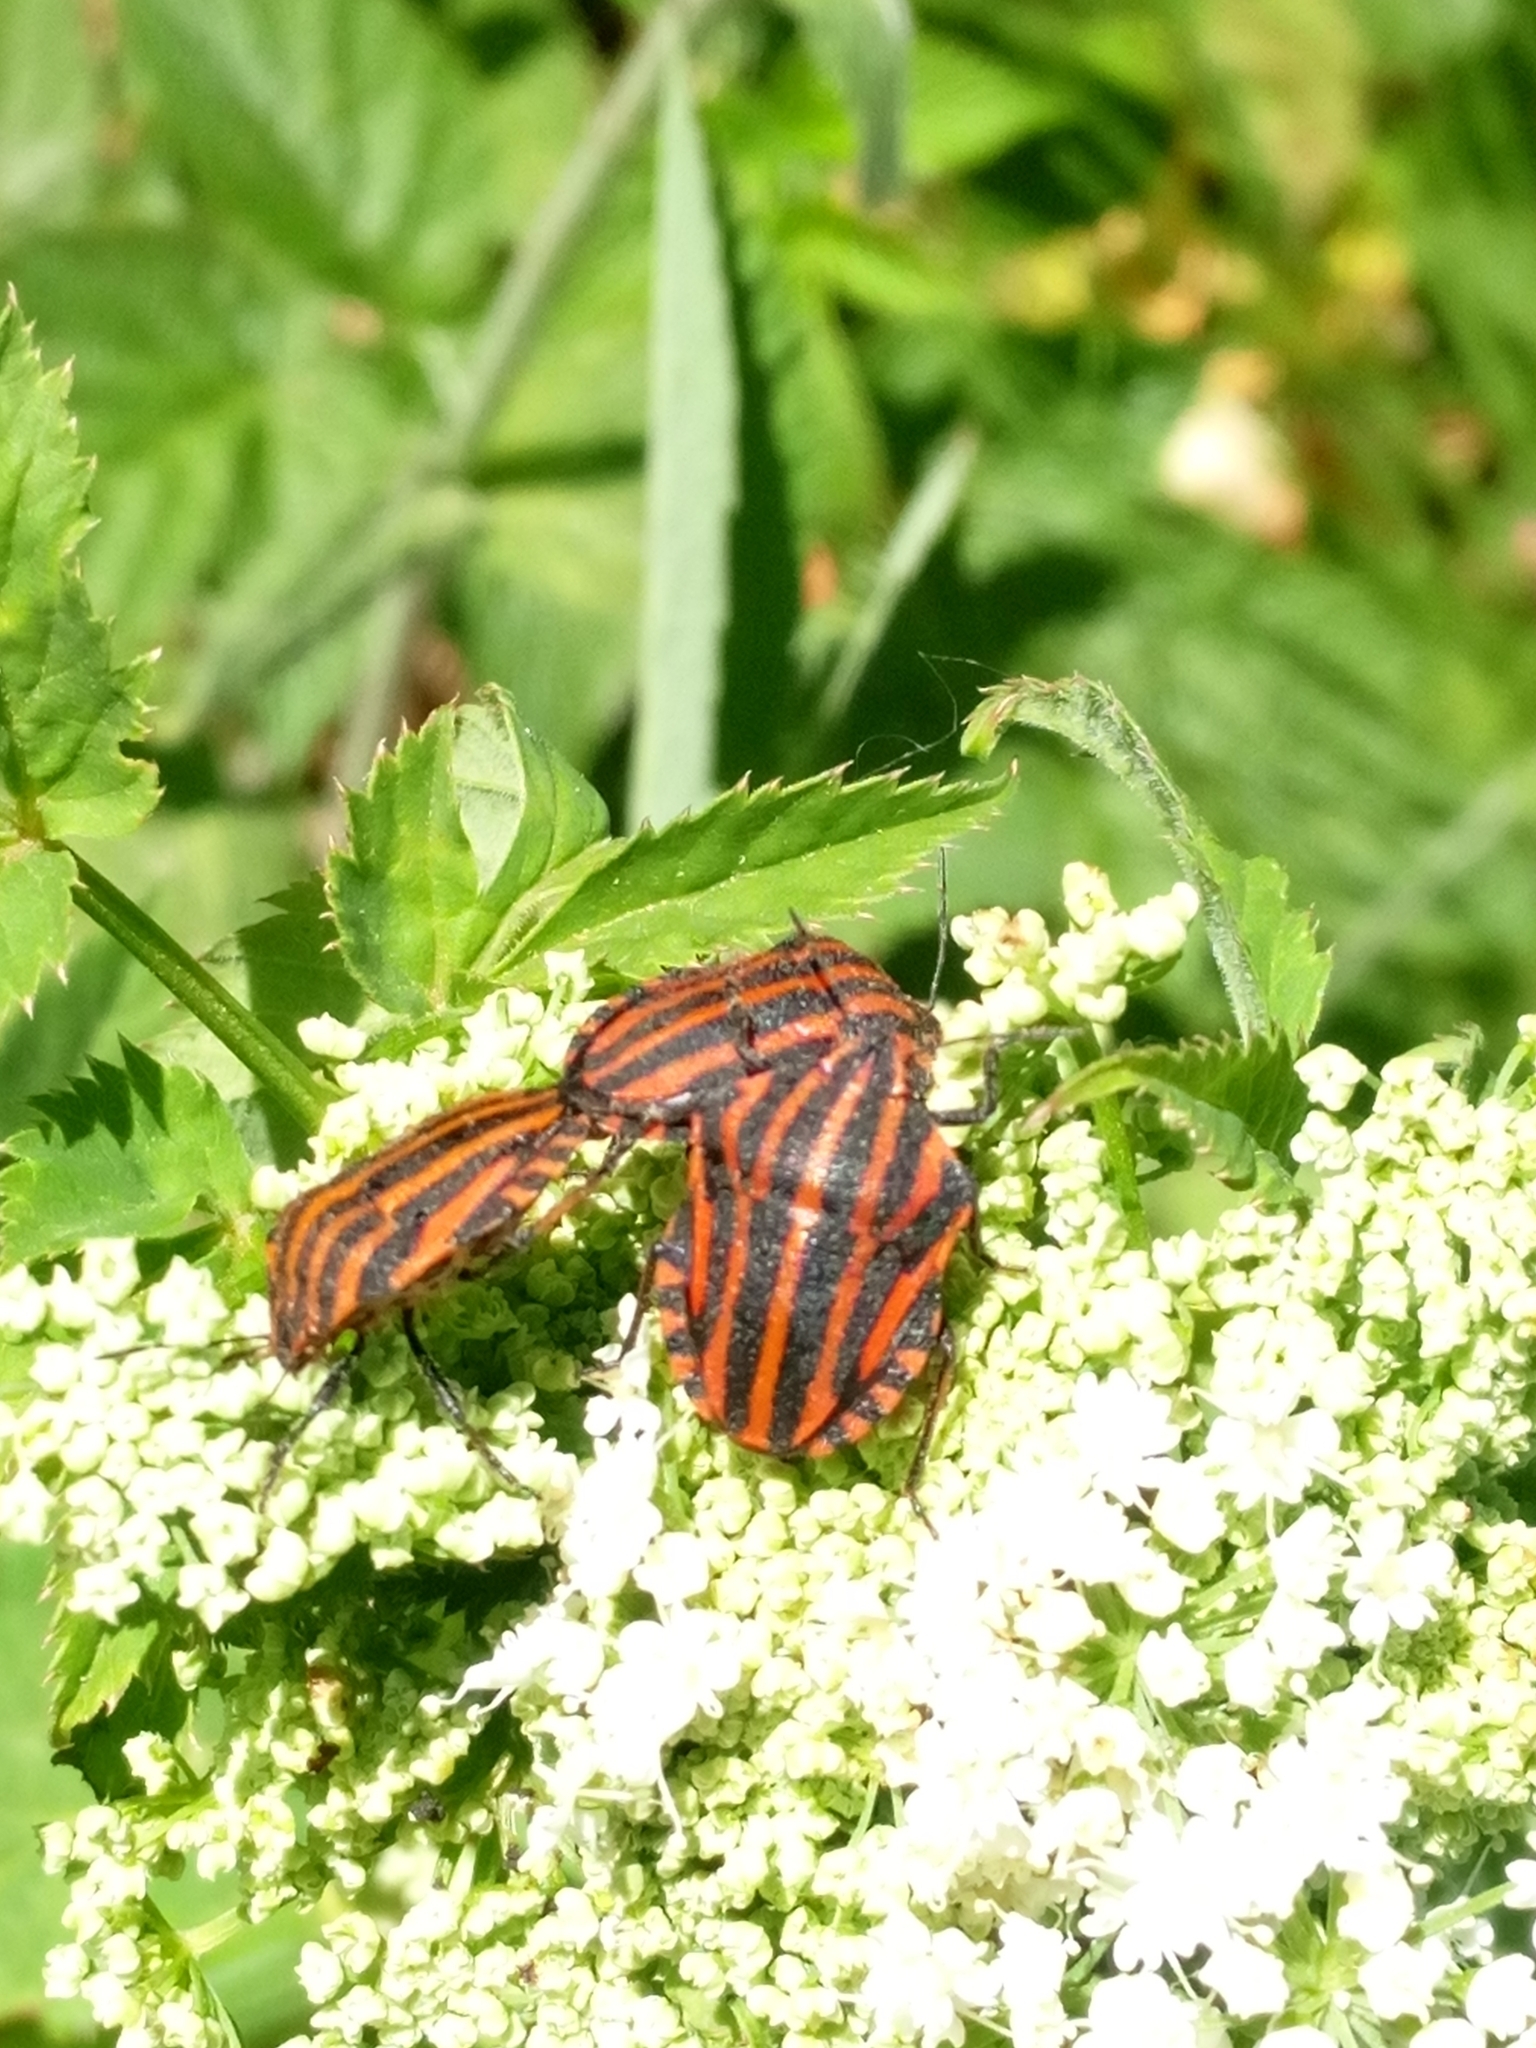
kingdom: Animalia
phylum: Arthropoda
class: Insecta
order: Hemiptera
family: Pentatomidae
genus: Graphosoma
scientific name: Graphosoma italicum
